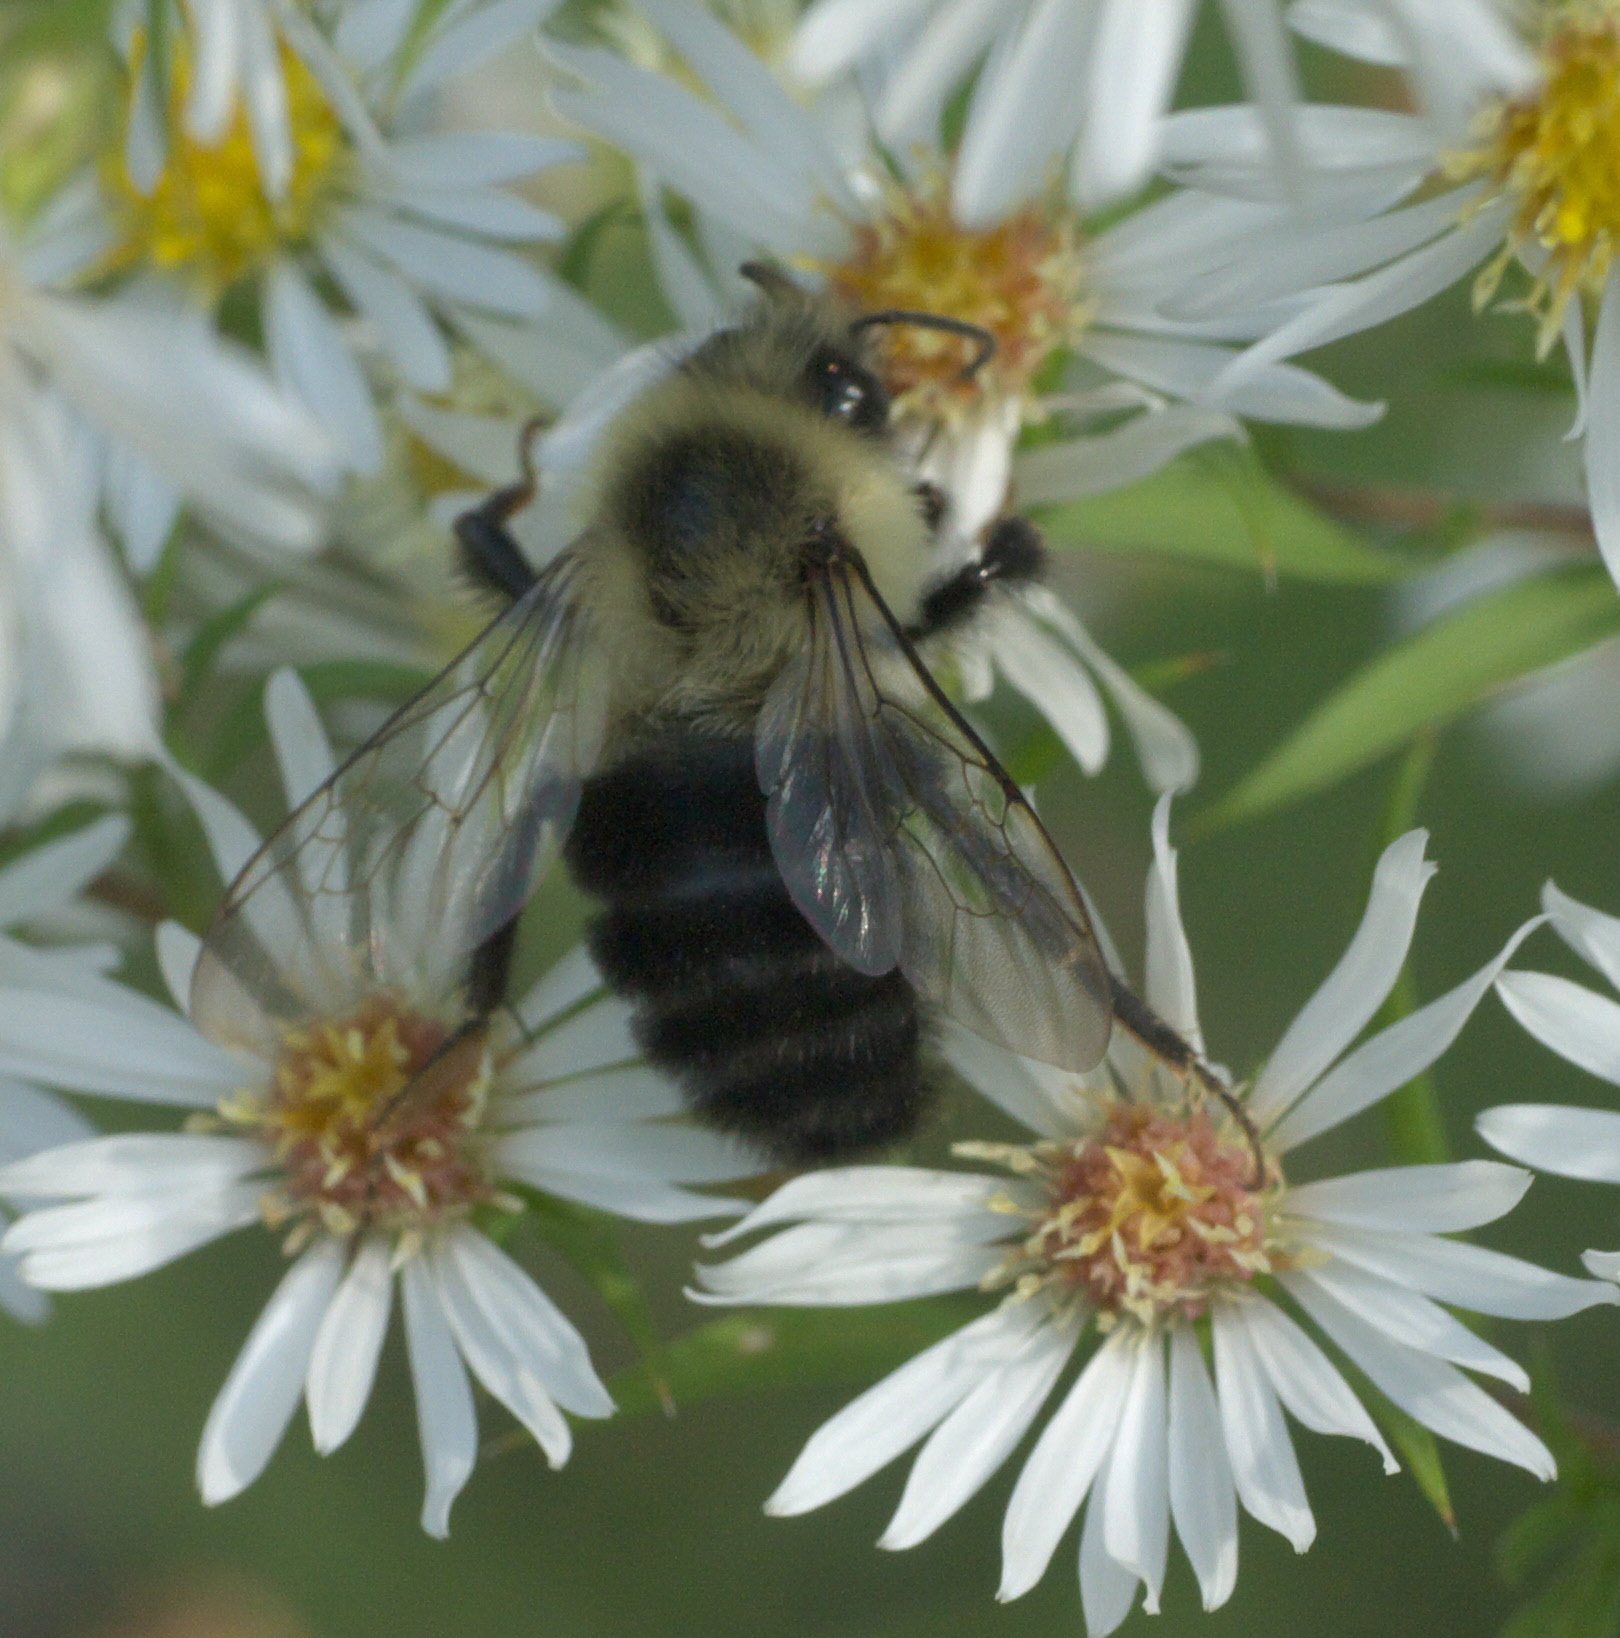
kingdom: Animalia
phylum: Arthropoda
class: Insecta
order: Hymenoptera
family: Apidae
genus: Bombus
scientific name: Bombus impatiens
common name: Common eastern bumble bee
